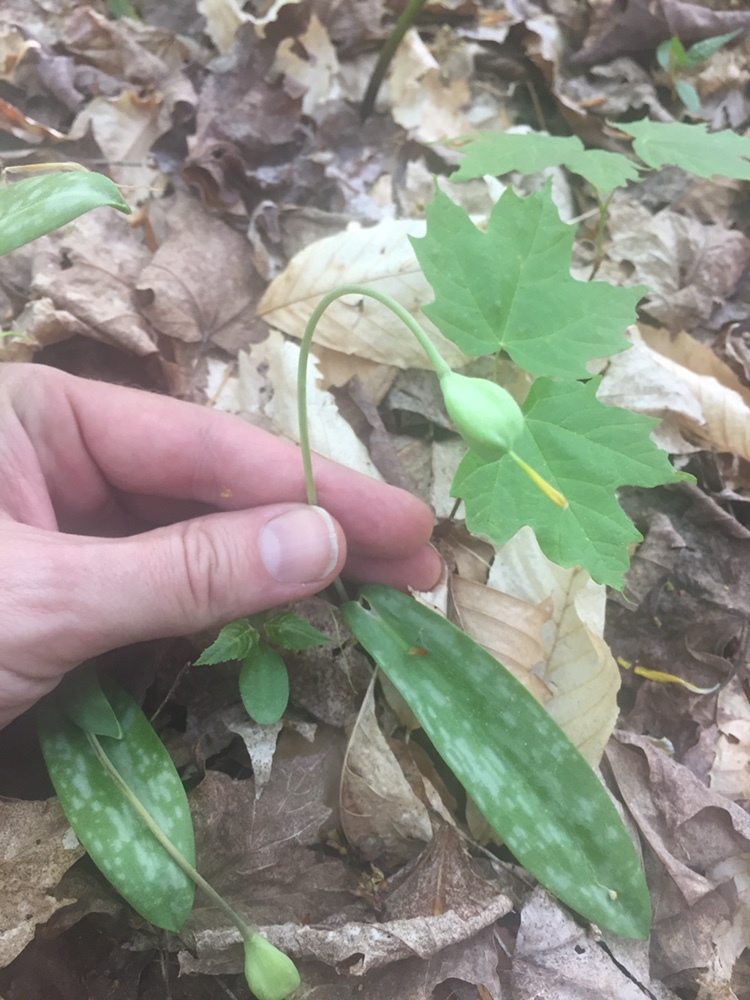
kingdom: Plantae
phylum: Tracheophyta
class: Liliopsida
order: Liliales
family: Liliaceae
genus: Erythronium
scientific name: Erythronium americanum
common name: Yellow adder's-tongue
